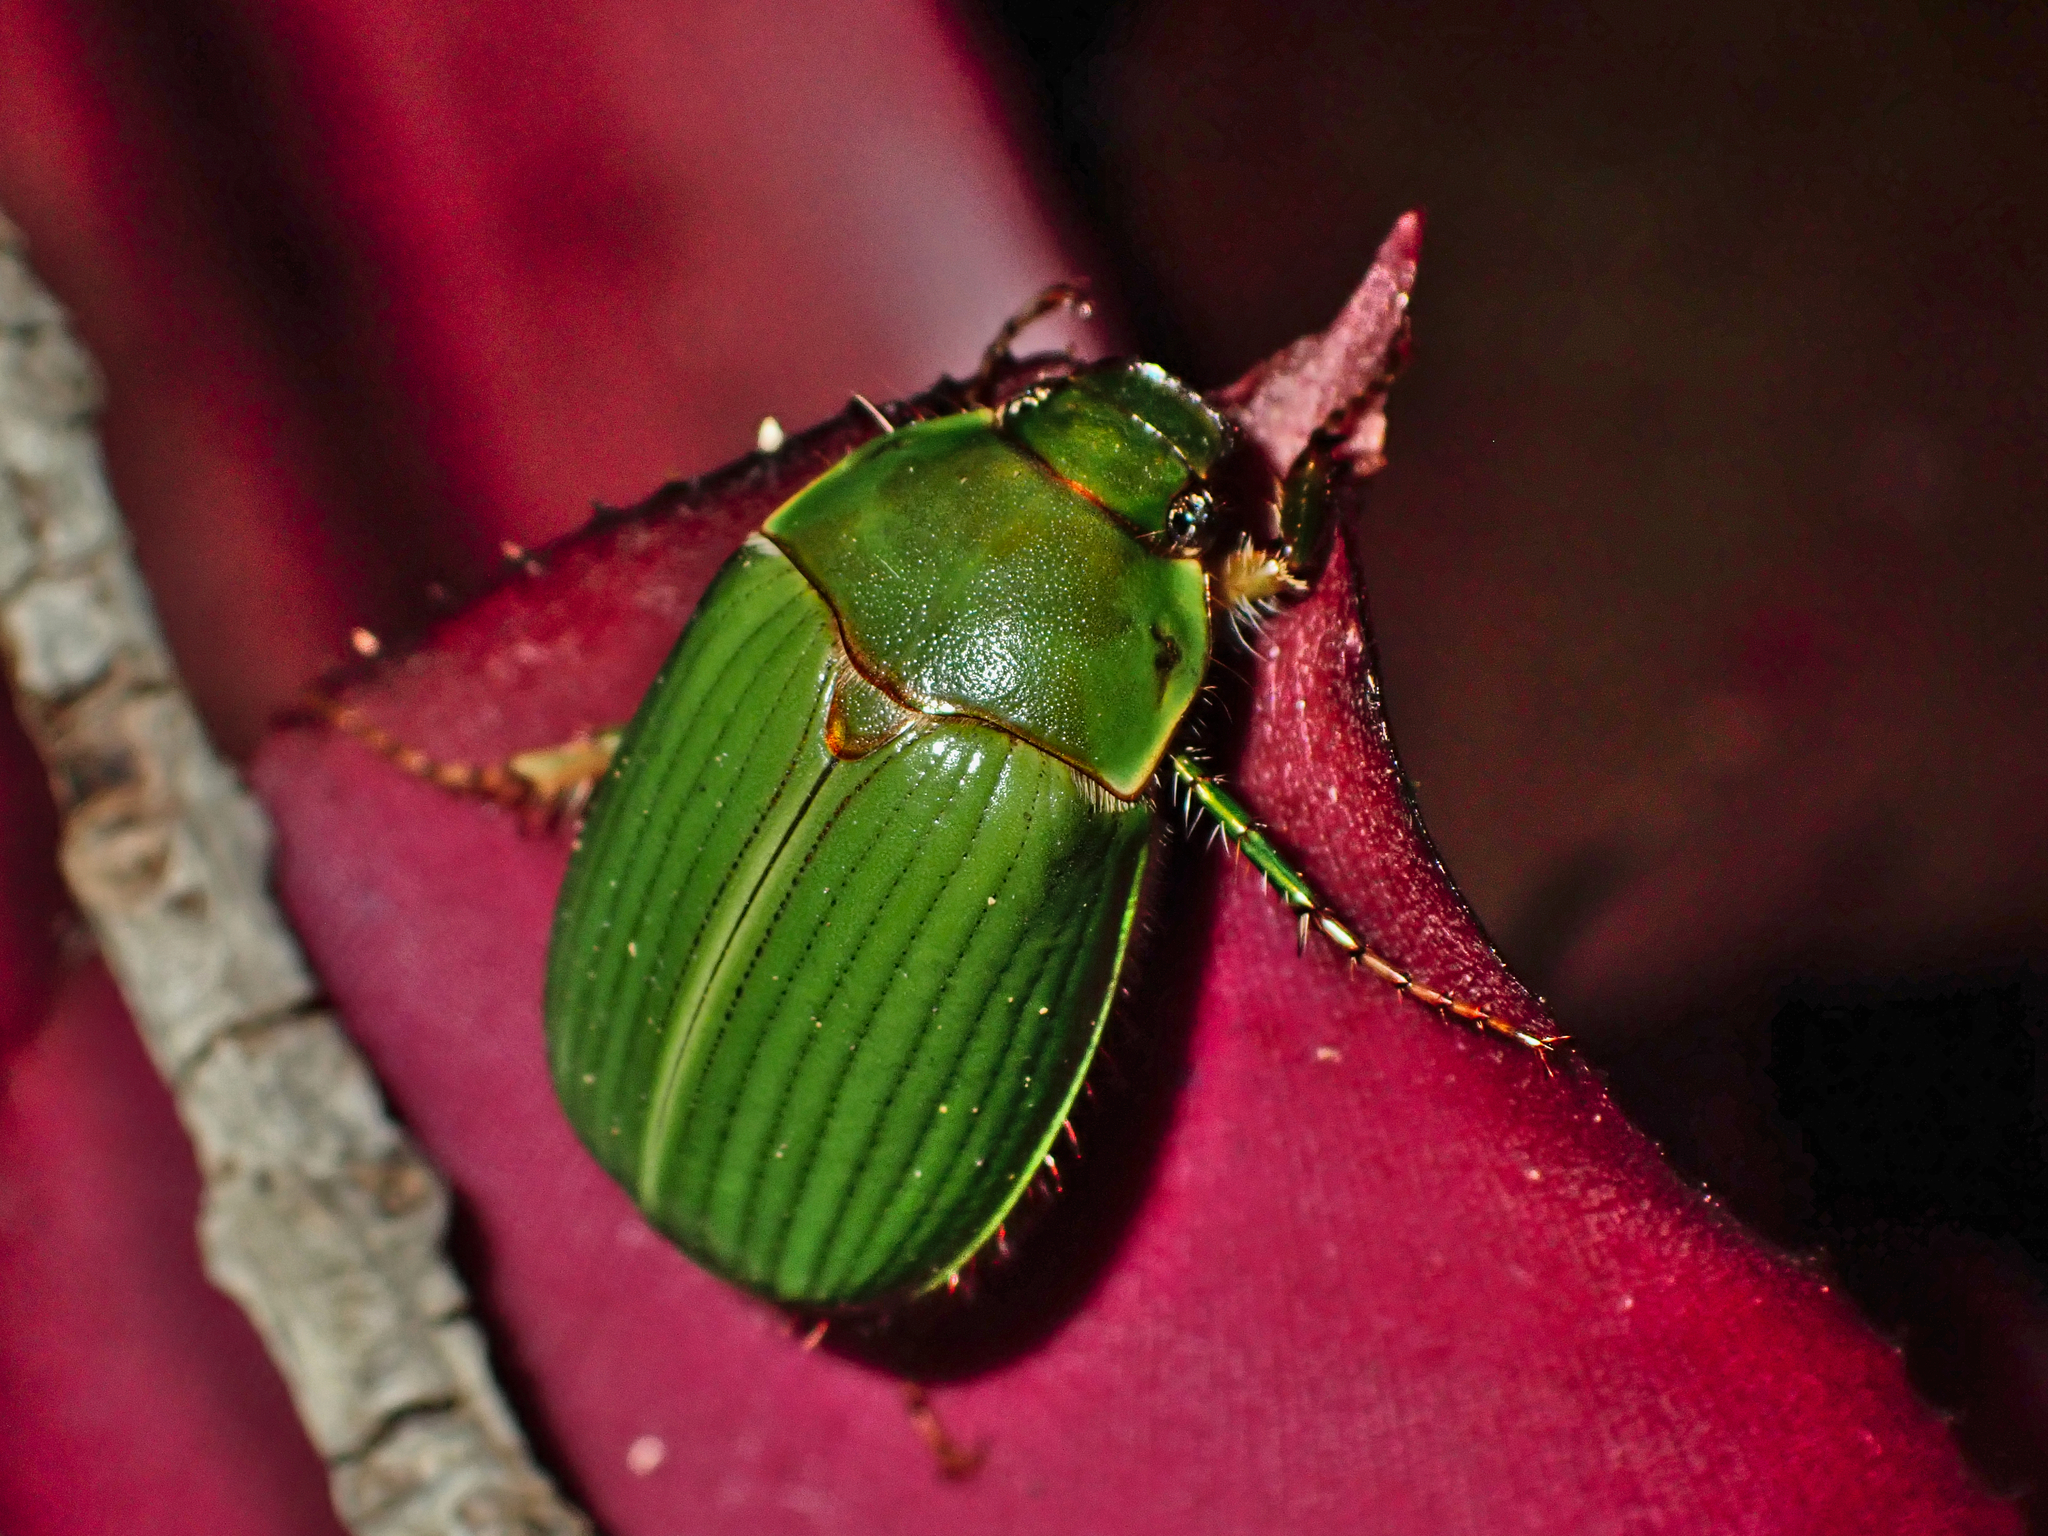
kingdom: Animalia
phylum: Arthropoda
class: Insecta
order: Coleoptera
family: Scarabaeidae
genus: Stethaspis
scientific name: Stethaspis longicornis
